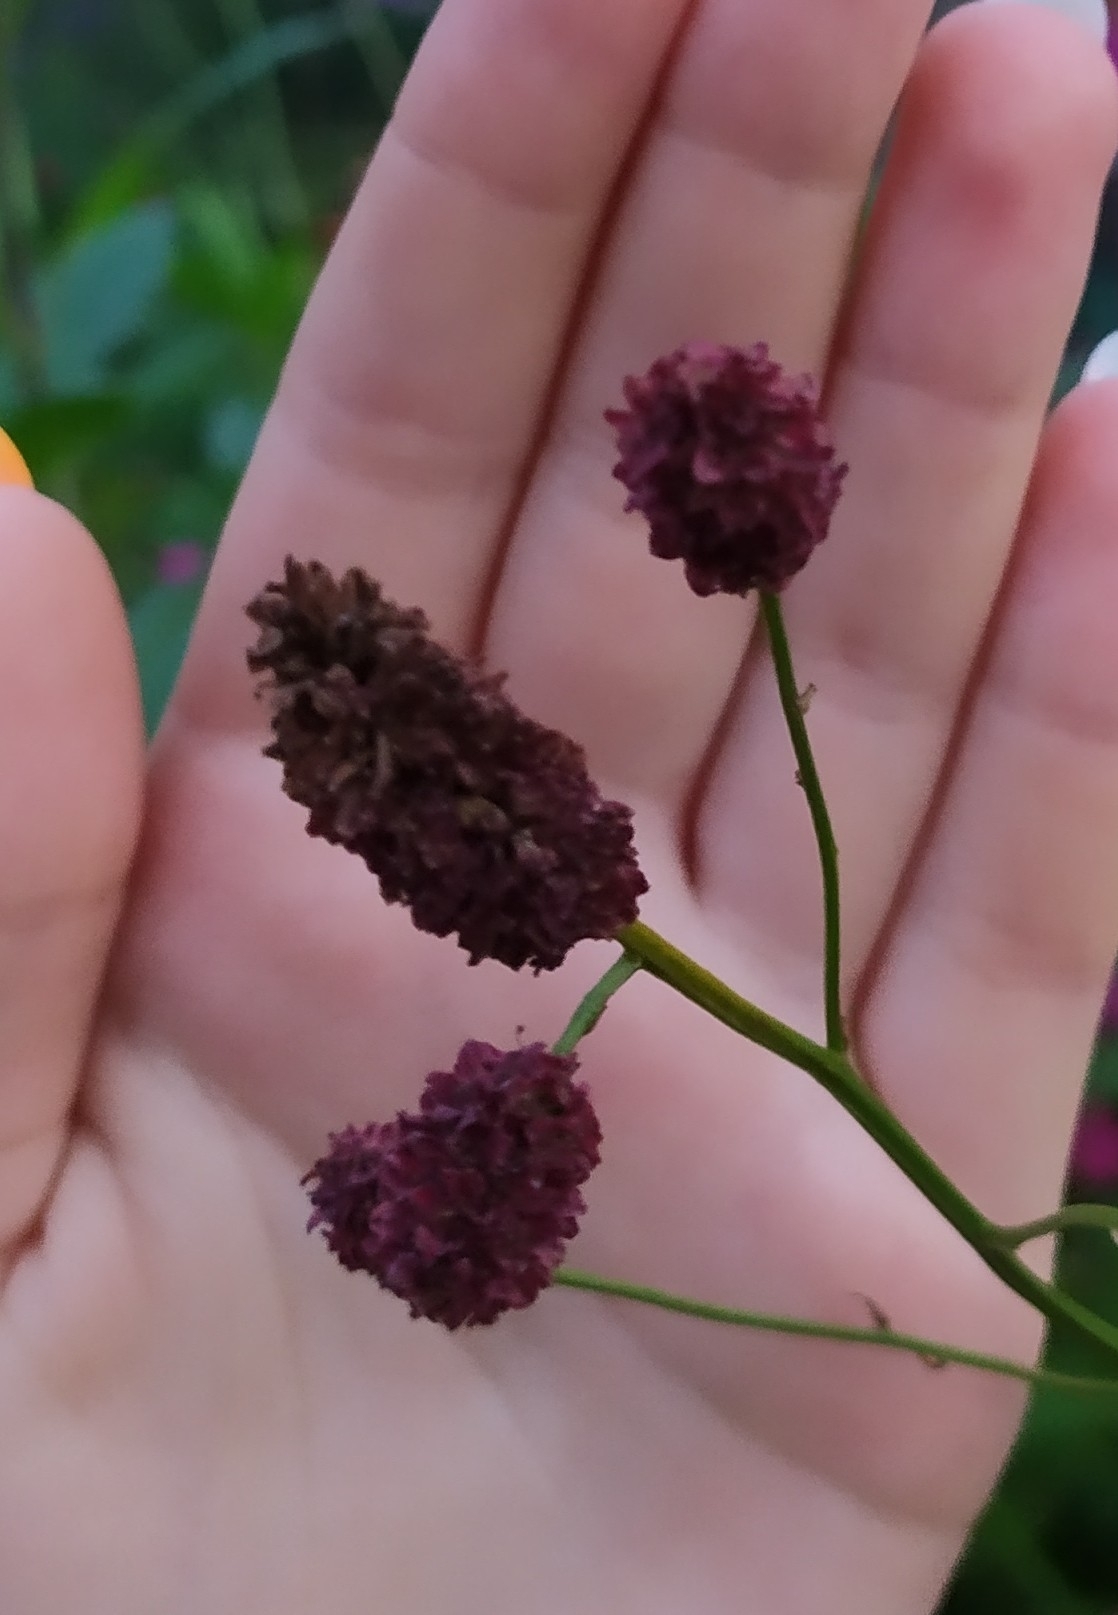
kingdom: Plantae
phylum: Tracheophyta
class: Magnoliopsida
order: Rosales
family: Rosaceae
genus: Sanguisorba
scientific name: Sanguisorba officinalis
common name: Great burnet
